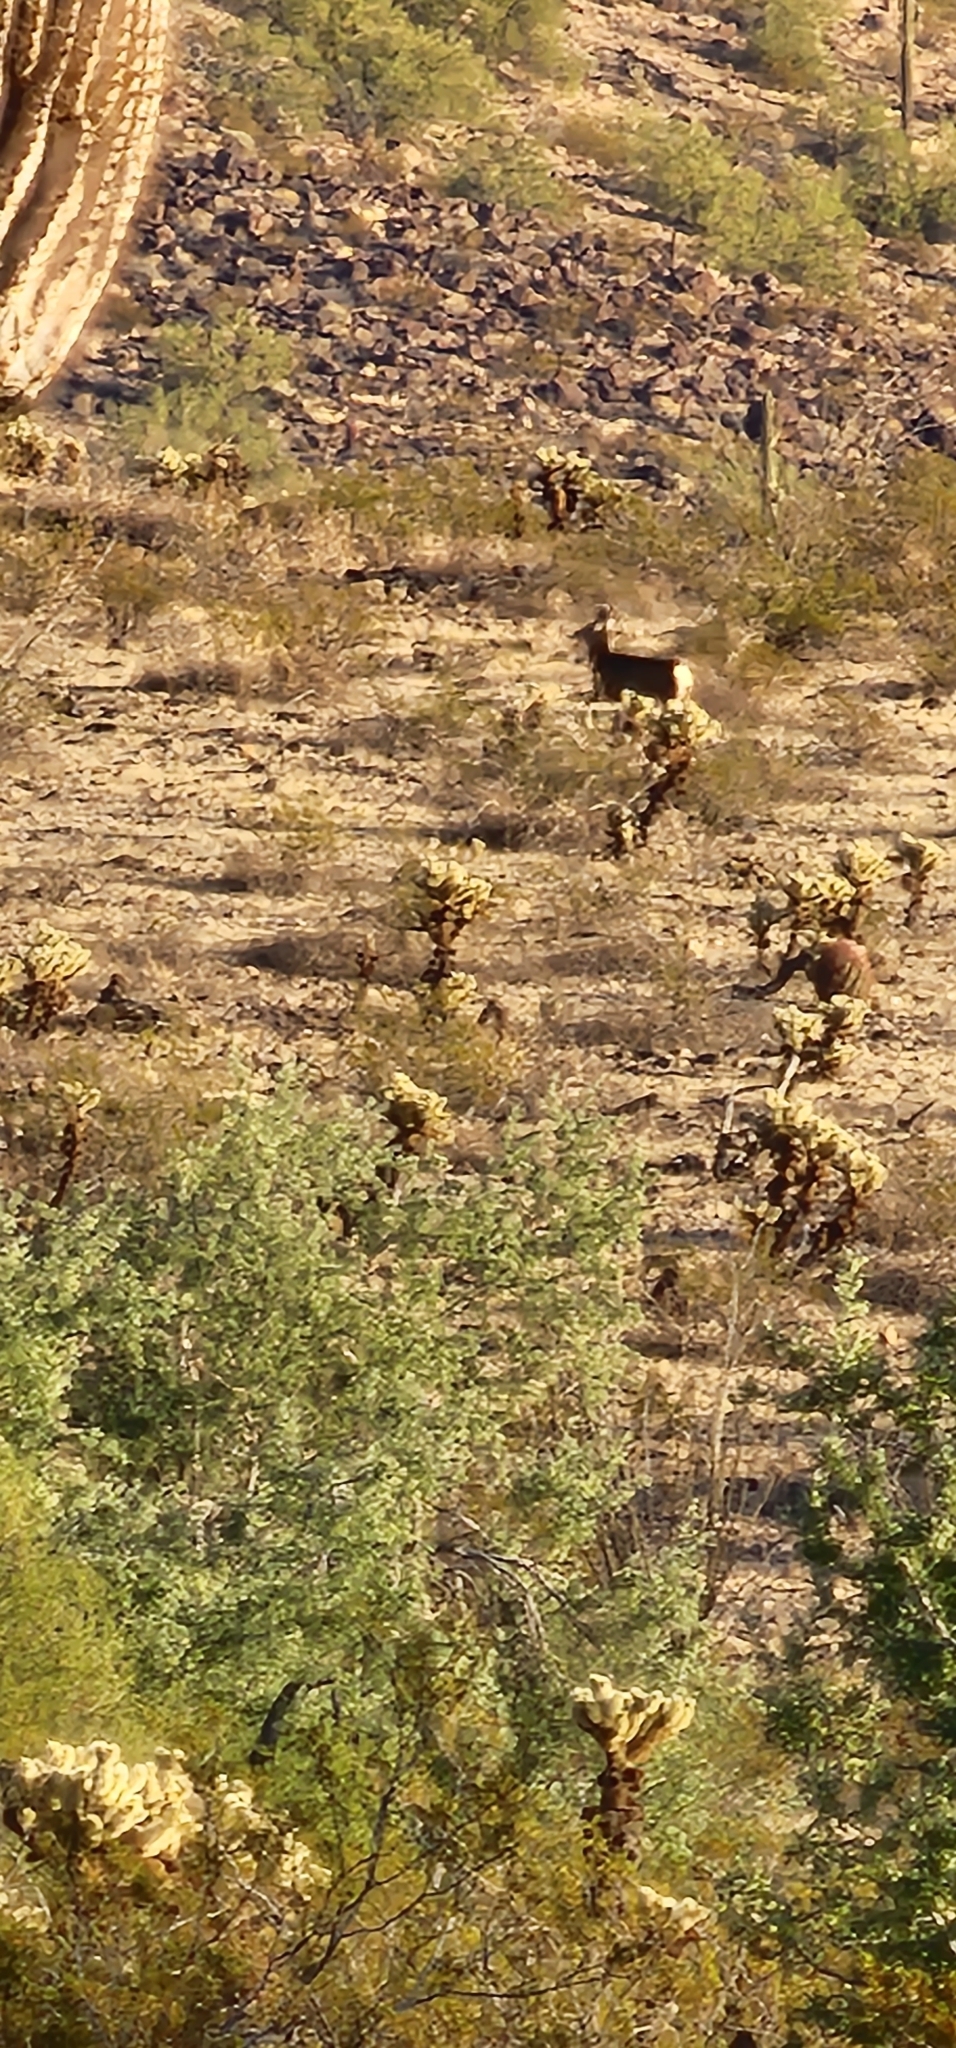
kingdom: Animalia
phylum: Chordata
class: Mammalia
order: Artiodactyla
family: Cervidae
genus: Odocoileus
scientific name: Odocoileus hemionus
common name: Mule deer
